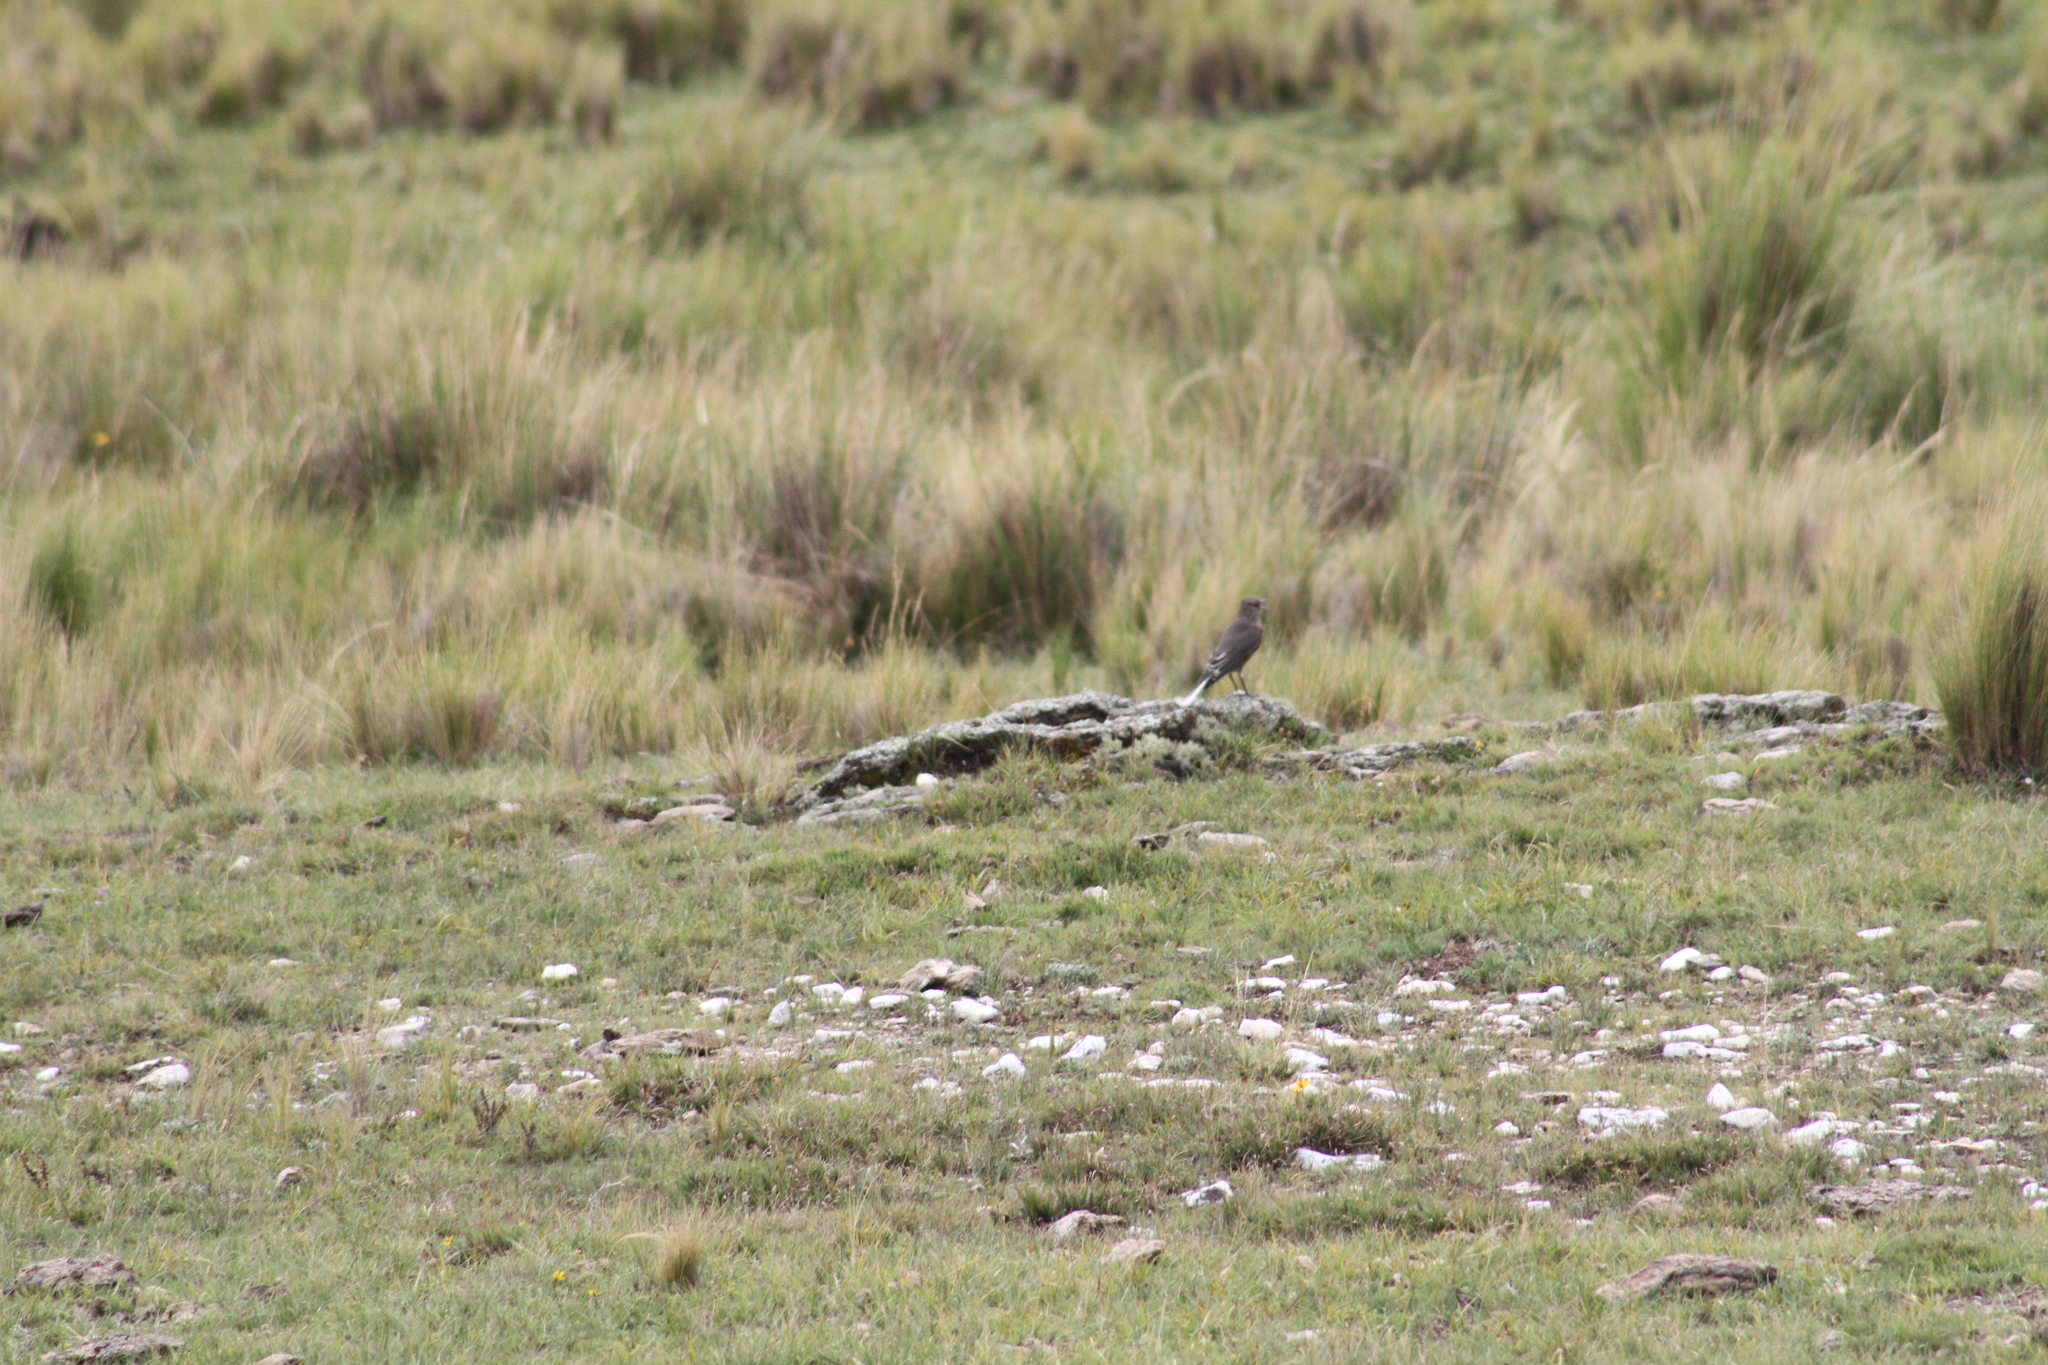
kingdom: Animalia
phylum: Chordata
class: Aves
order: Passeriformes
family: Tyrannidae
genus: Agriornis
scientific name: Agriornis montanus
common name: Black-billed shrike-tyrant
